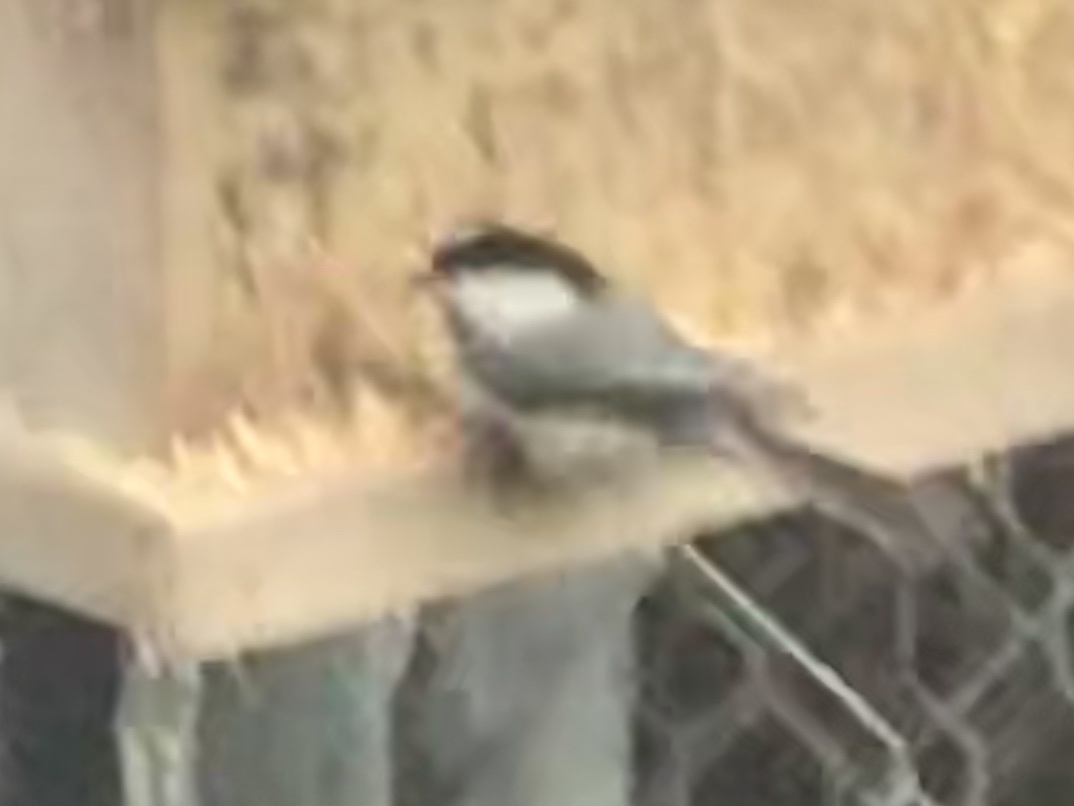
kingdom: Animalia
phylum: Chordata
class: Aves
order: Passeriformes
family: Paridae
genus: Poecile
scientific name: Poecile carolinensis
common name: Carolina chickadee
